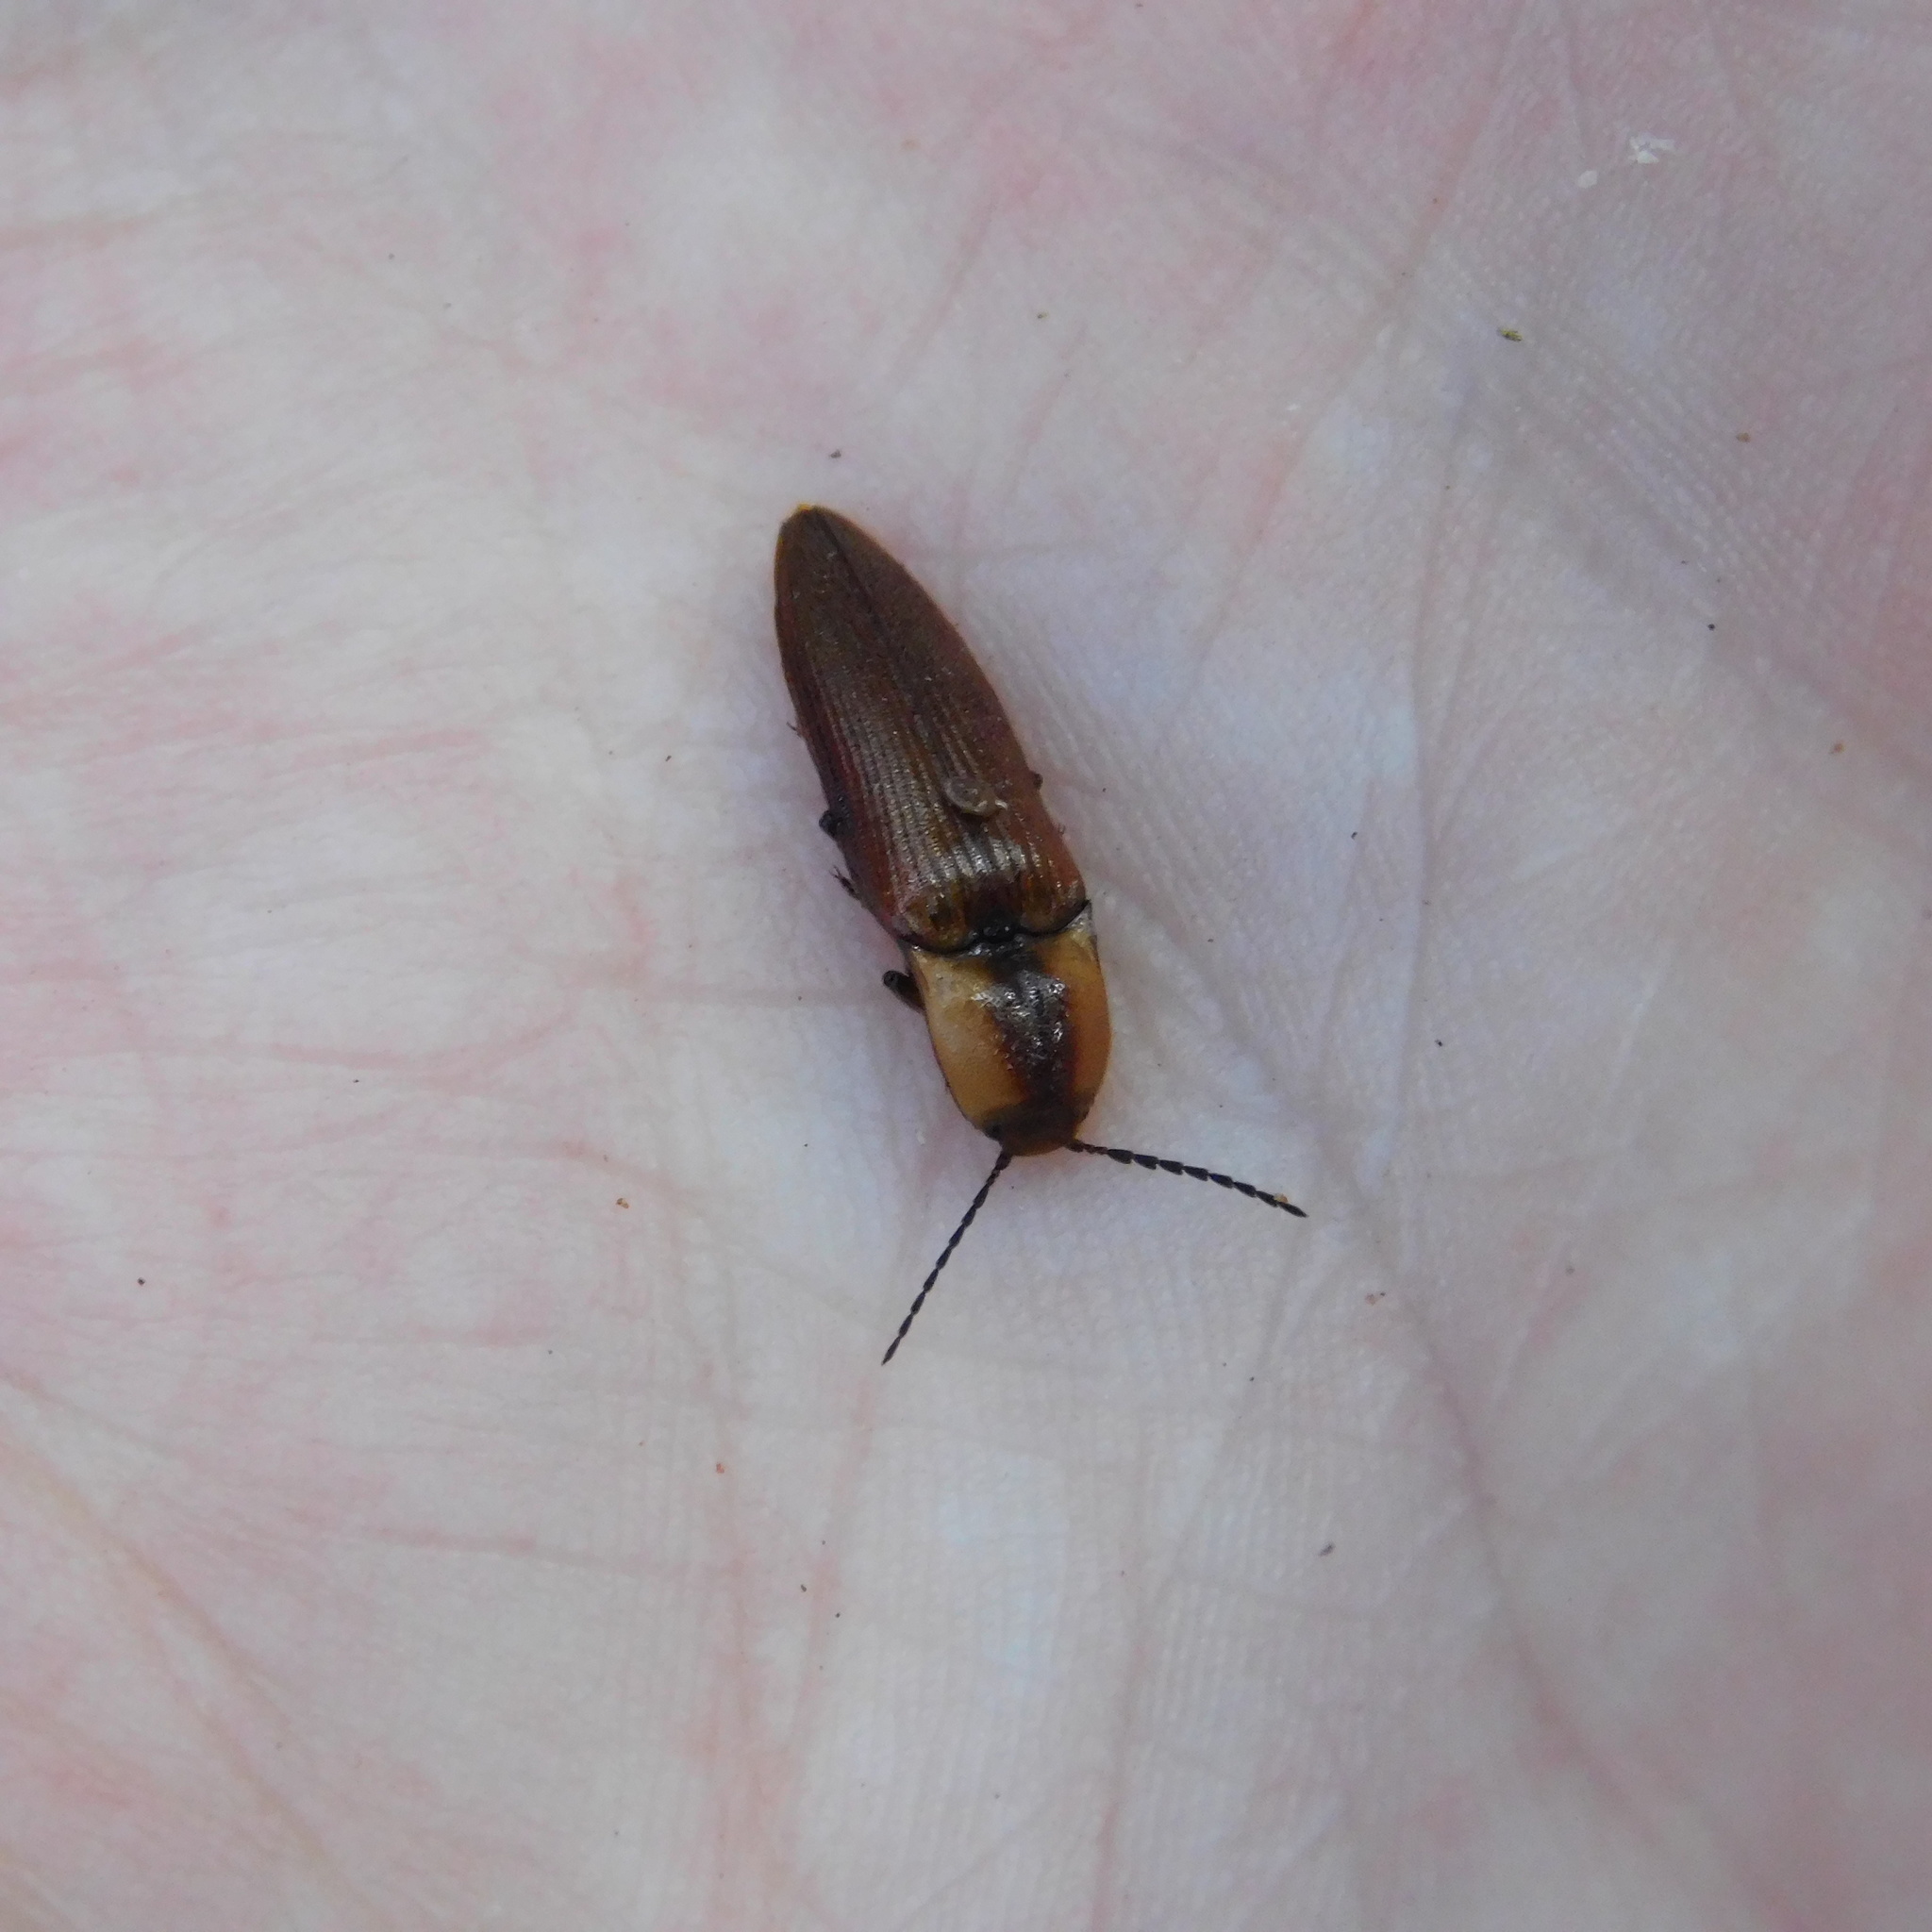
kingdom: Animalia
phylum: Arthropoda
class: Insecta
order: Coleoptera
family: Elateridae
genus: Sphaenelater
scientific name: Sphaenelater
